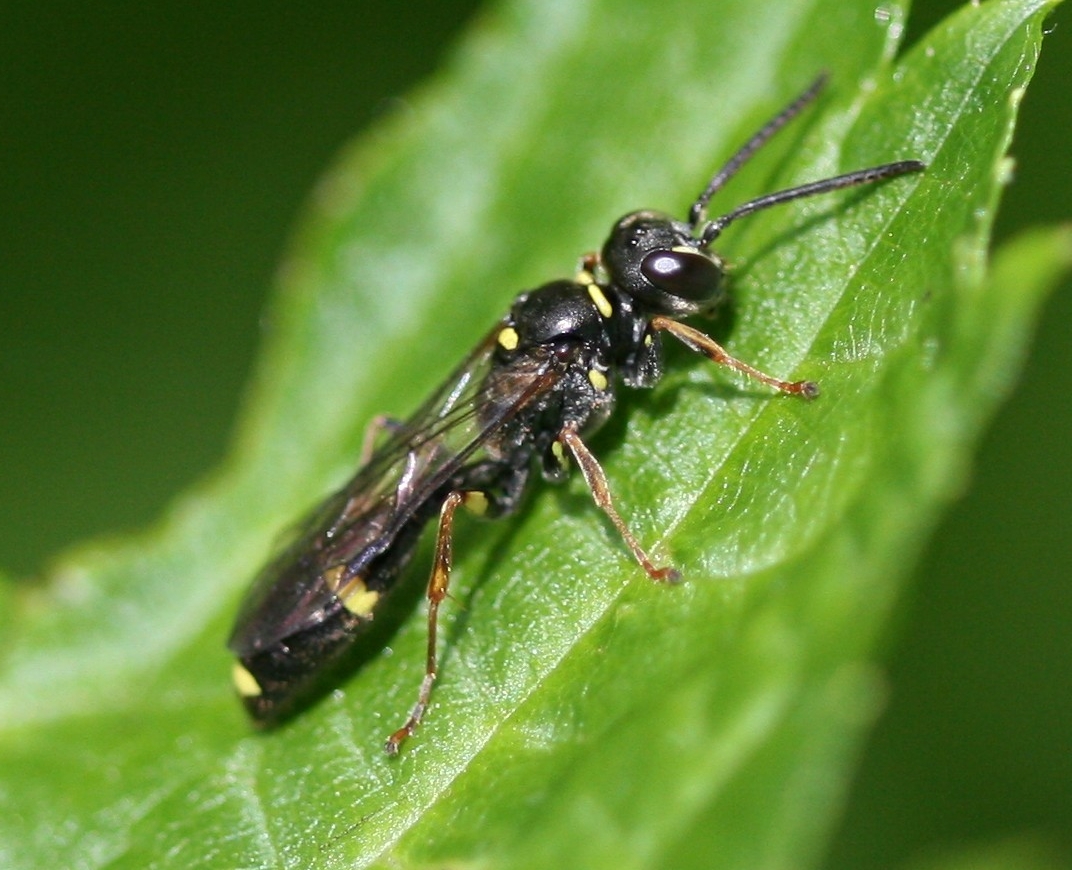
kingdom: Animalia
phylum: Arthropoda
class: Insecta
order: Hymenoptera
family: Crabronidae
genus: Mellinus
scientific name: Mellinus arvensis
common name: Field digger wasp
